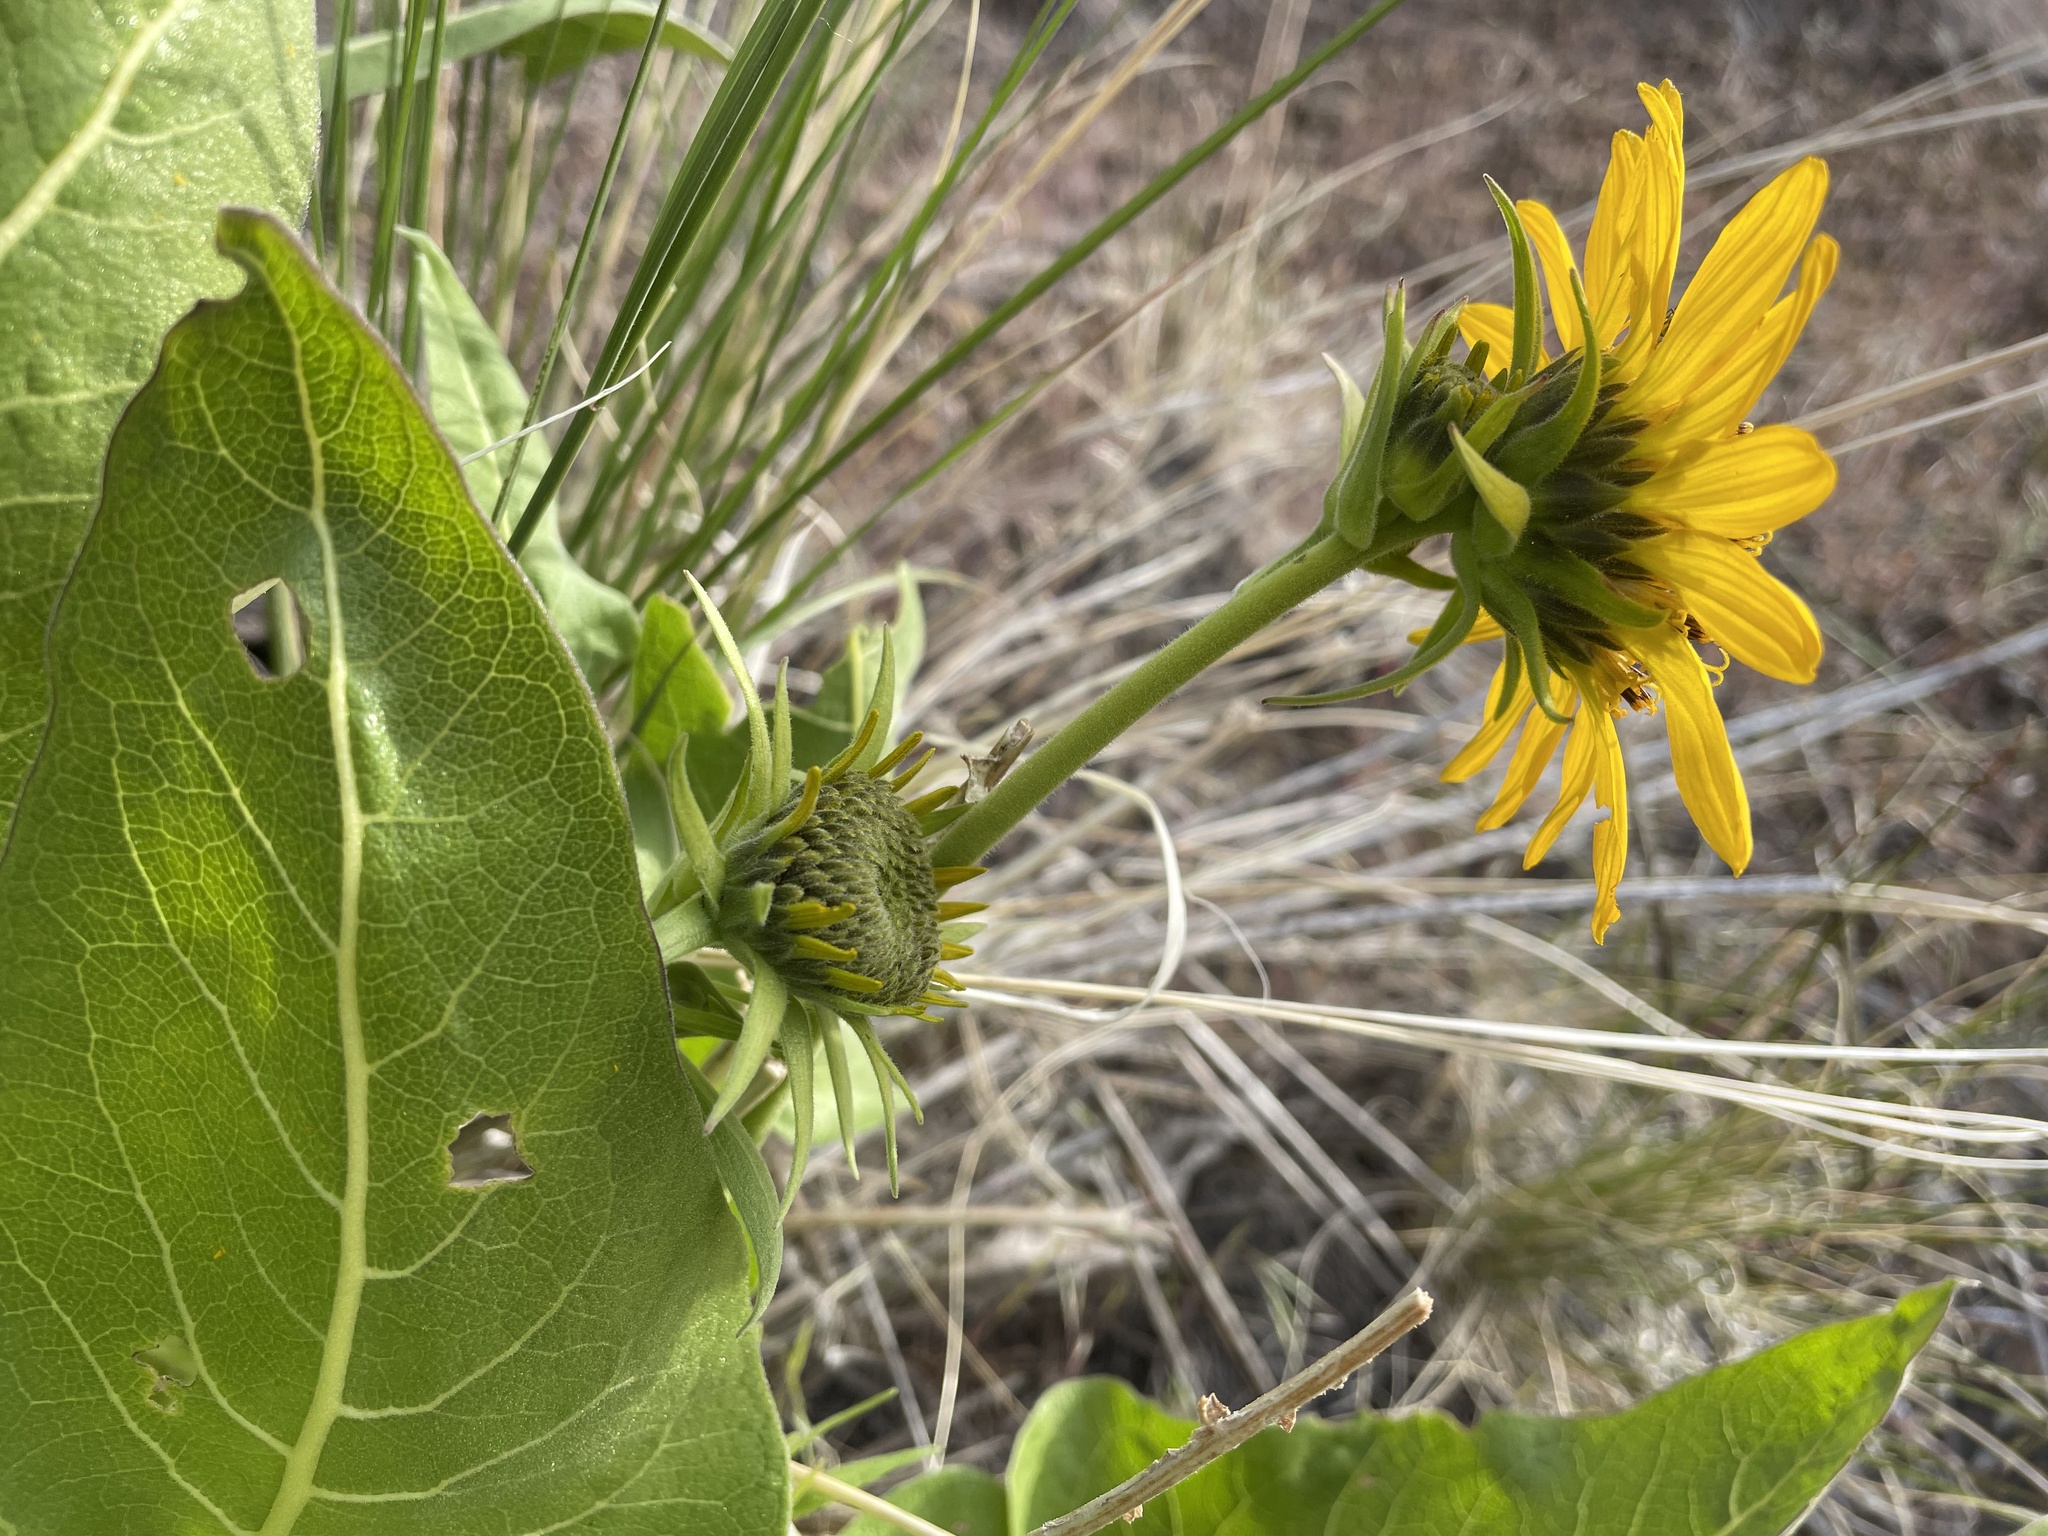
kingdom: Plantae
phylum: Tracheophyta
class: Magnoliopsida
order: Asterales
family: Asteraceae
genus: Balsamorhiza
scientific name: Balsamorhiza careyana
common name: Carey's balsamroot
